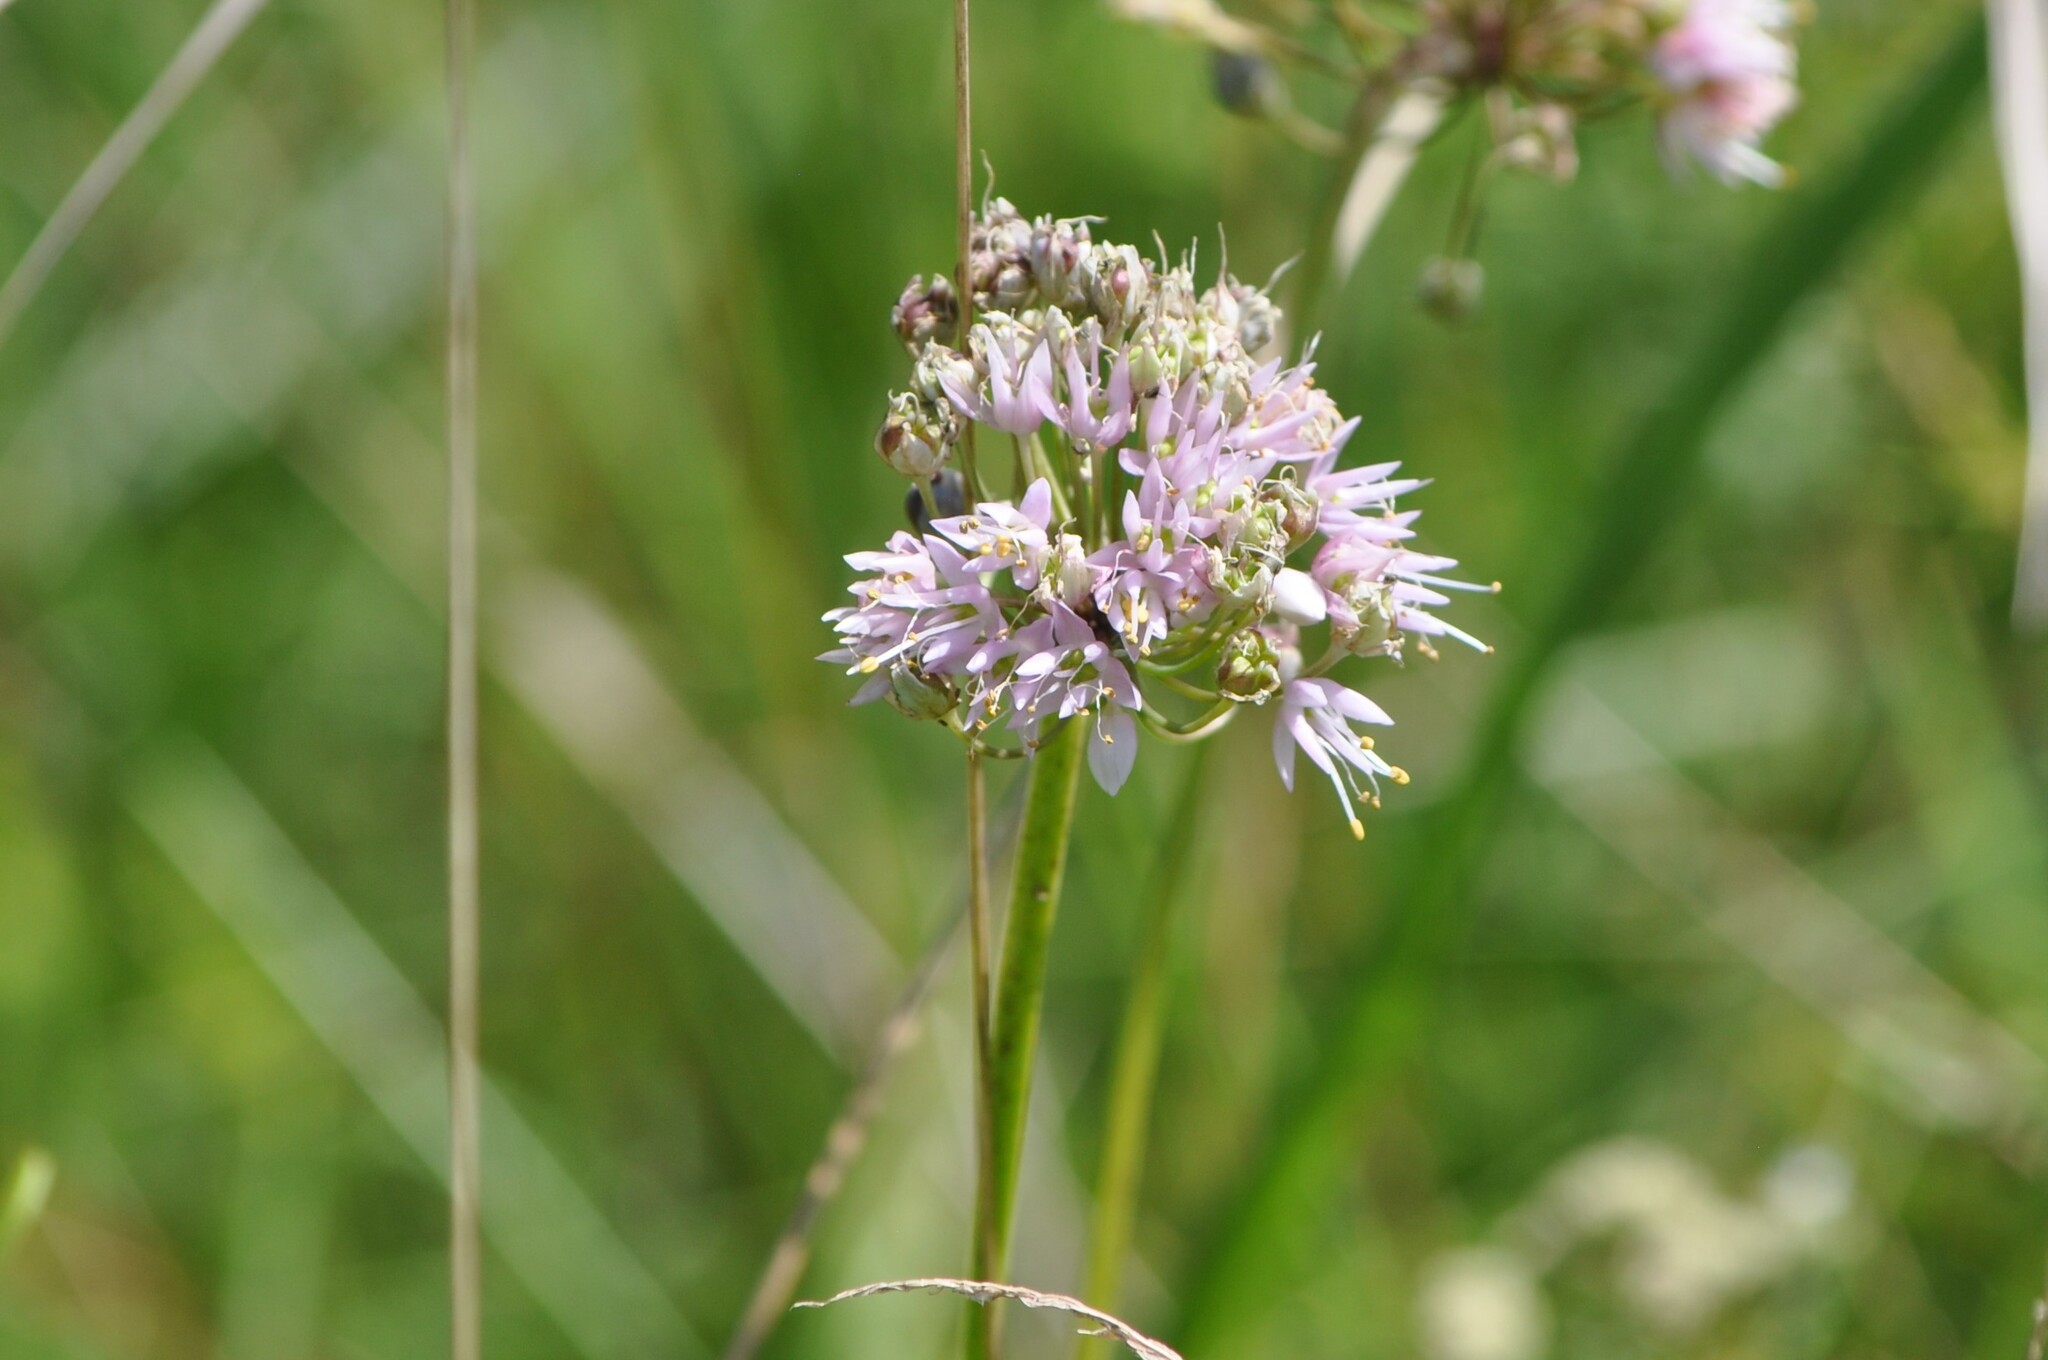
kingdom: Plantae
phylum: Tracheophyta
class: Liliopsida
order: Asparagales
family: Amaryllidaceae
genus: Allium
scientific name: Allium cernuum
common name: Nodding onion
